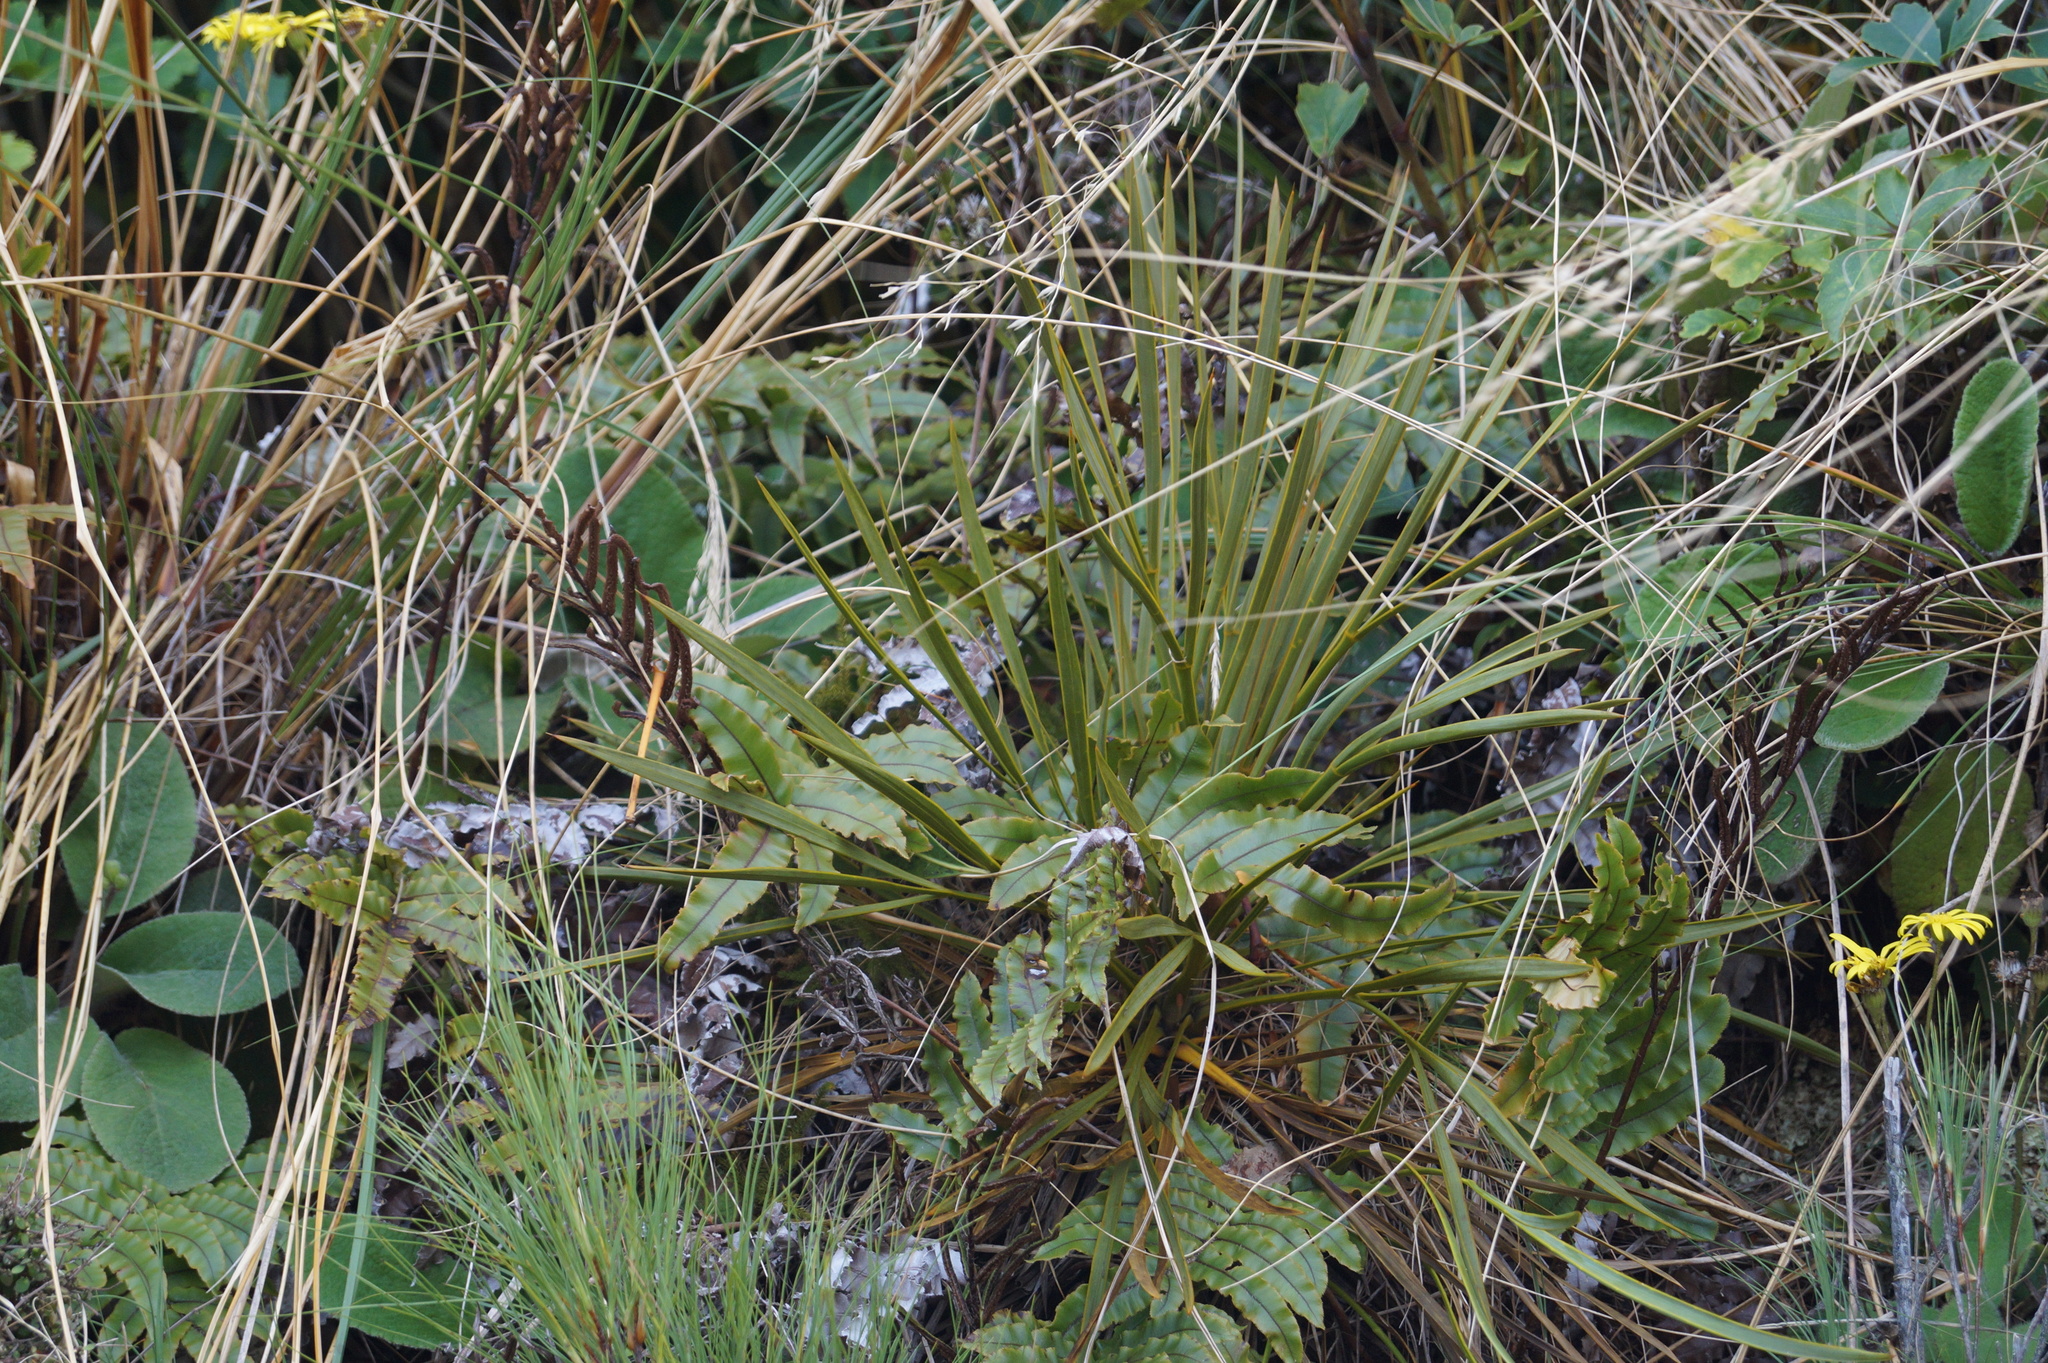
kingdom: Plantae
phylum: Tracheophyta
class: Magnoliopsida
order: Apiales
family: Apiaceae
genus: Aciphylla
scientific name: Aciphylla aurea
